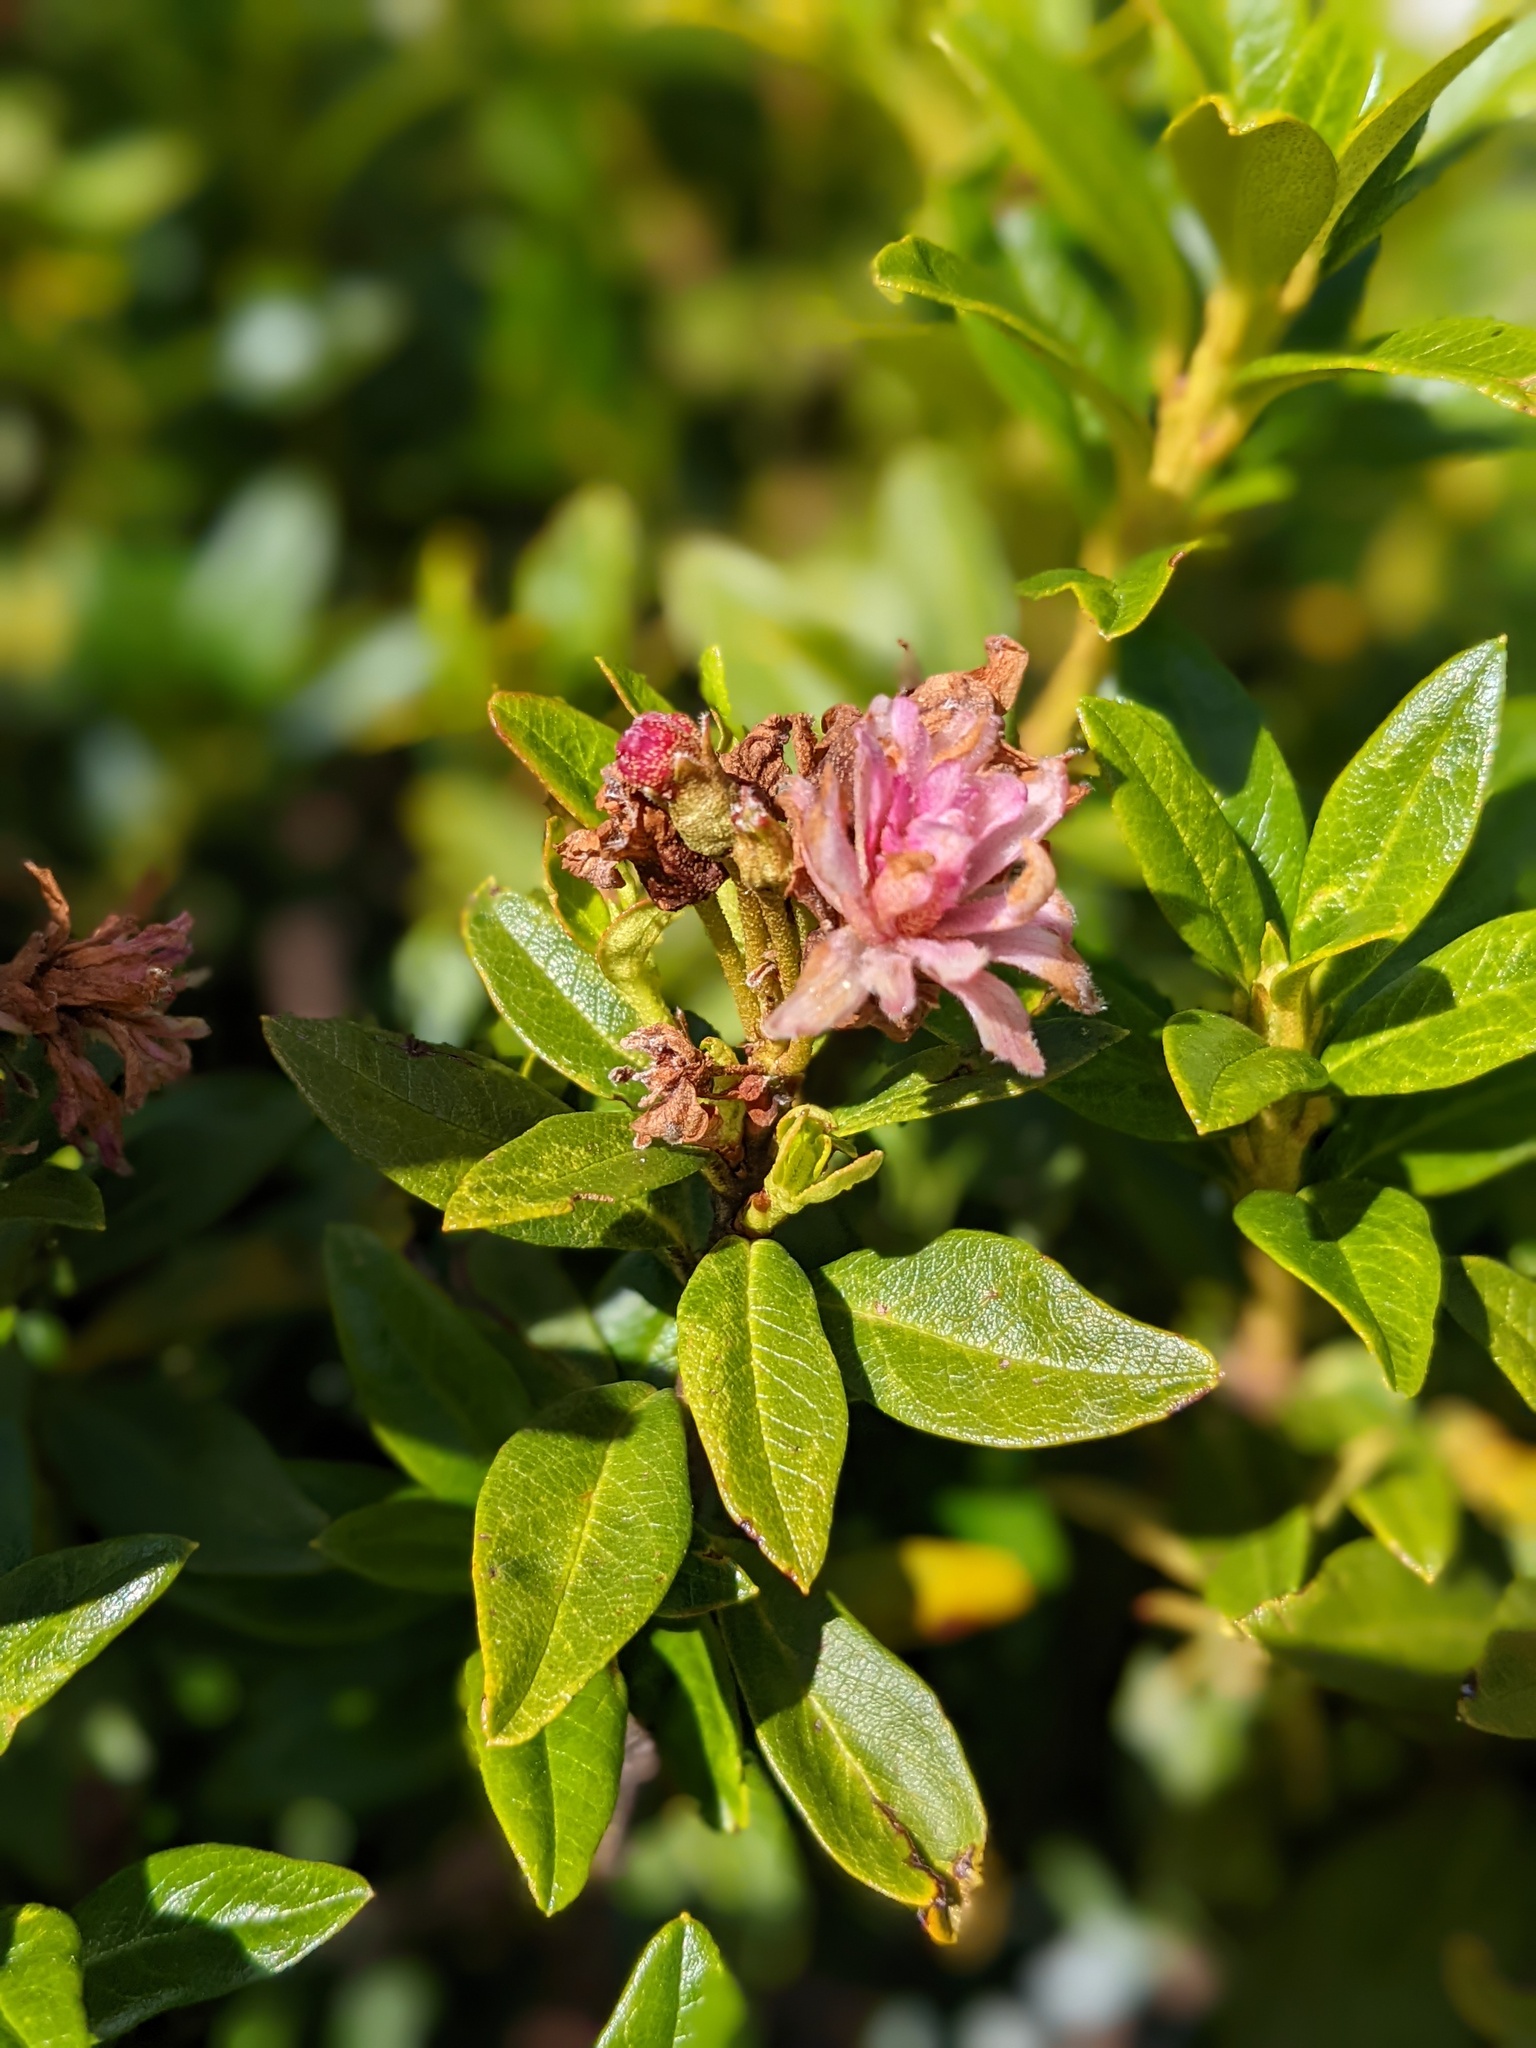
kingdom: Plantae
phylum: Tracheophyta
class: Magnoliopsida
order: Ericales
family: Ericaceae
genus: Rhododendron
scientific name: Rhododendron ferrugineum
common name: Alpenrose
